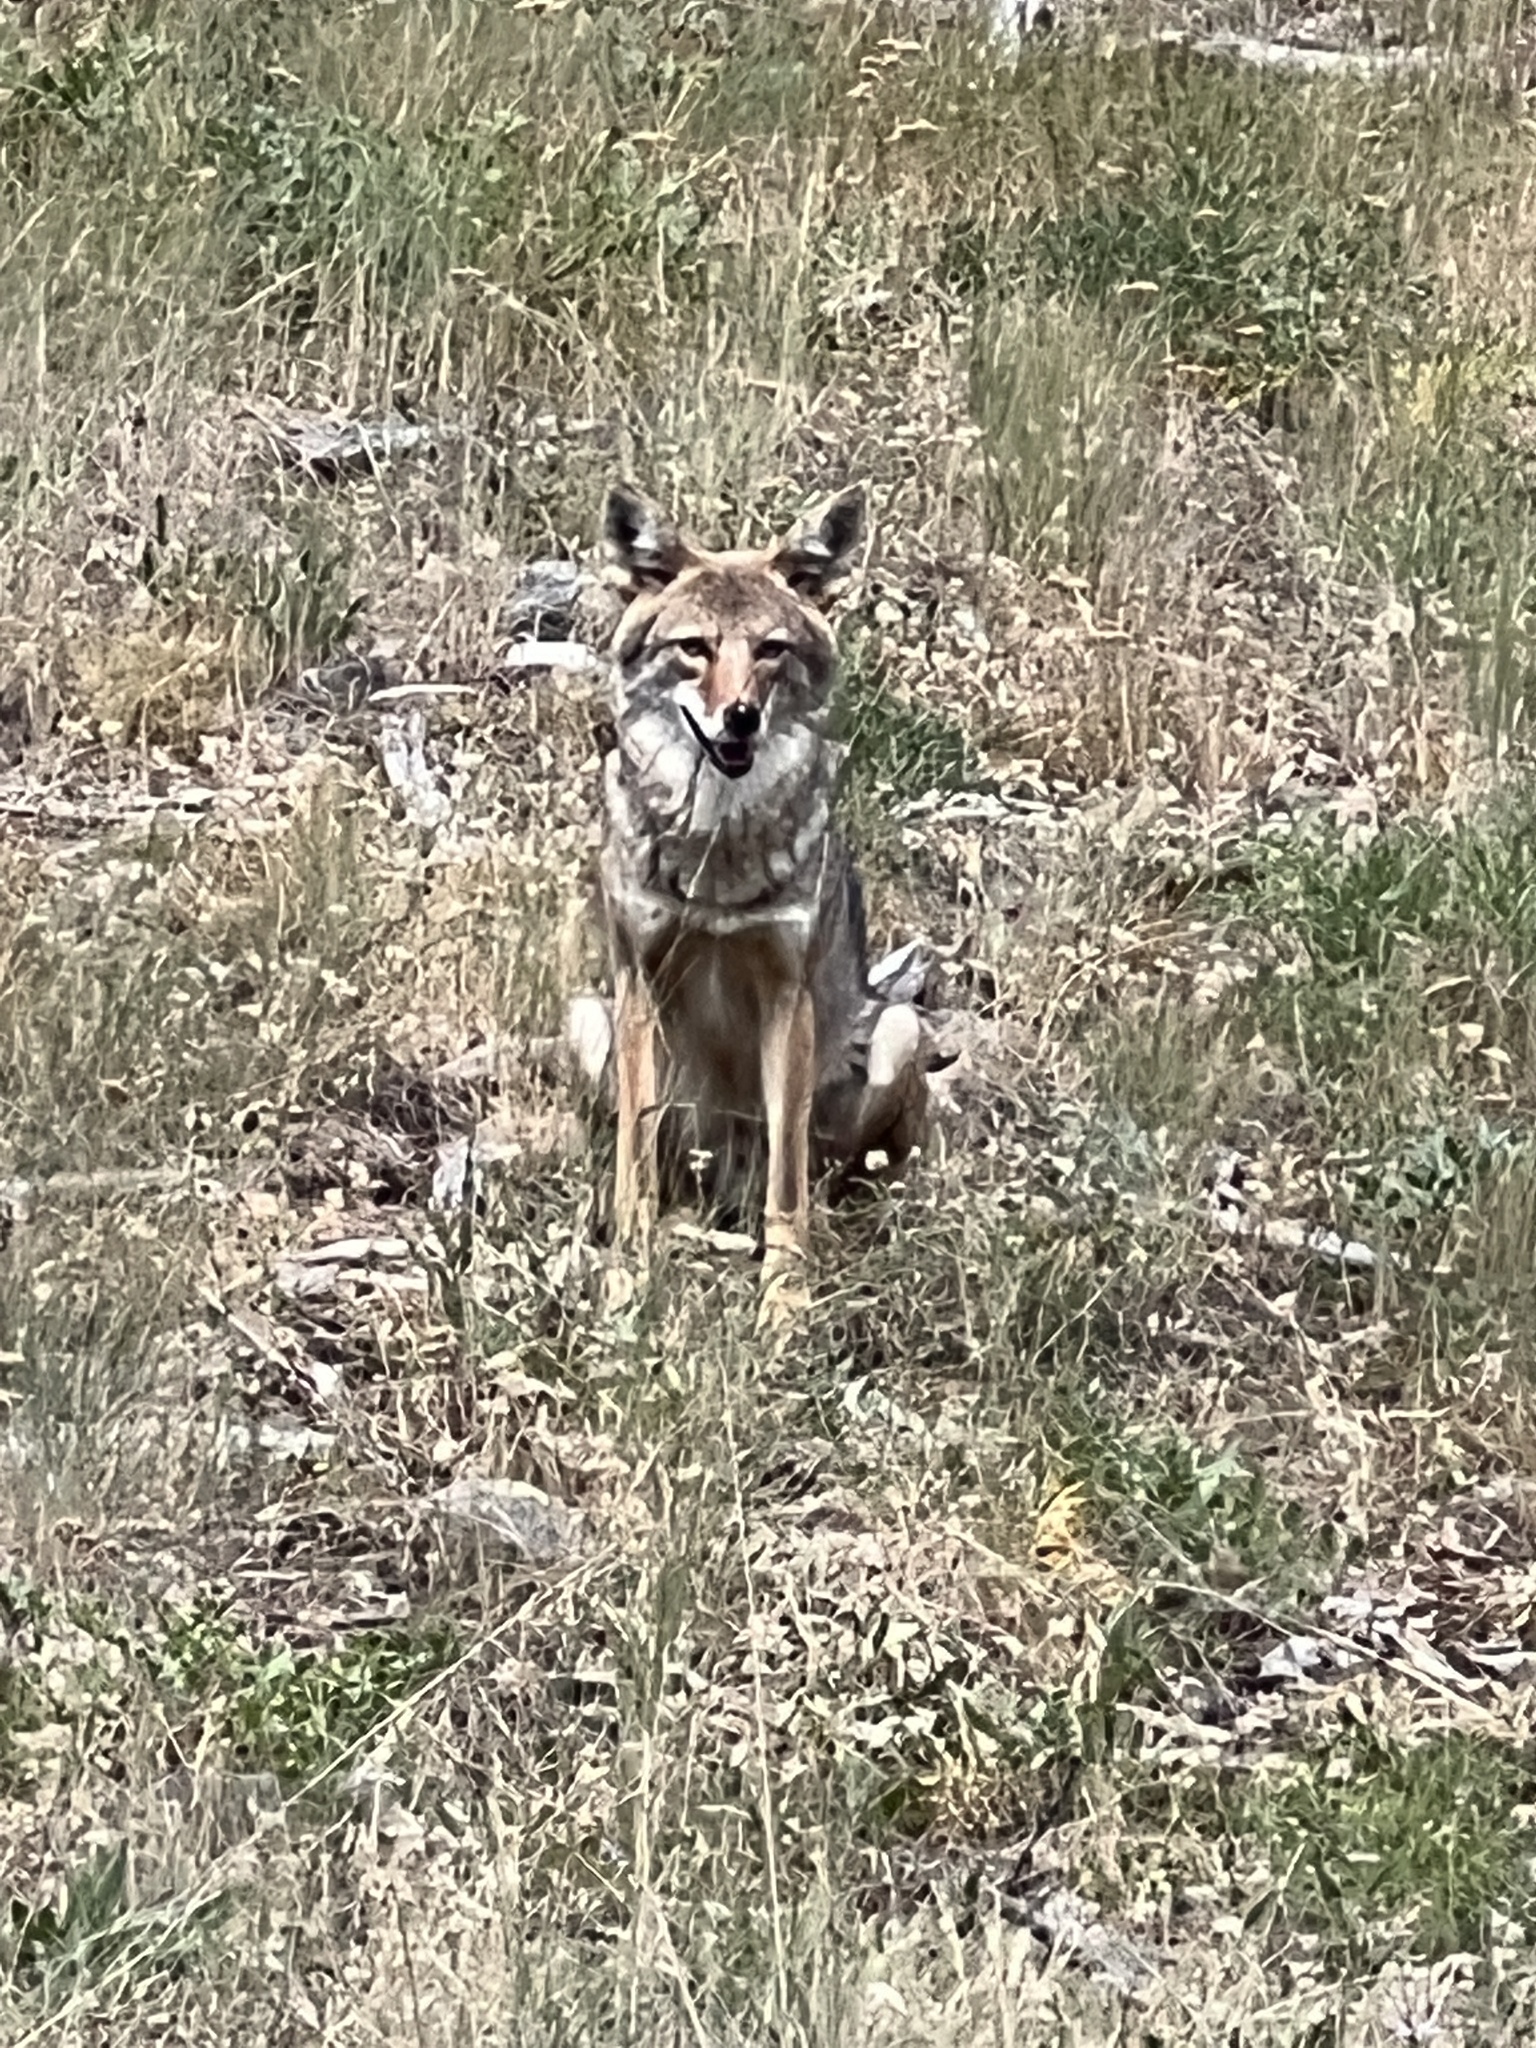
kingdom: Animalia
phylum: Chordata
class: Mammalia
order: Carnivora
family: Canidae
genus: Canis
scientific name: Canis latrans
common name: Coyote
